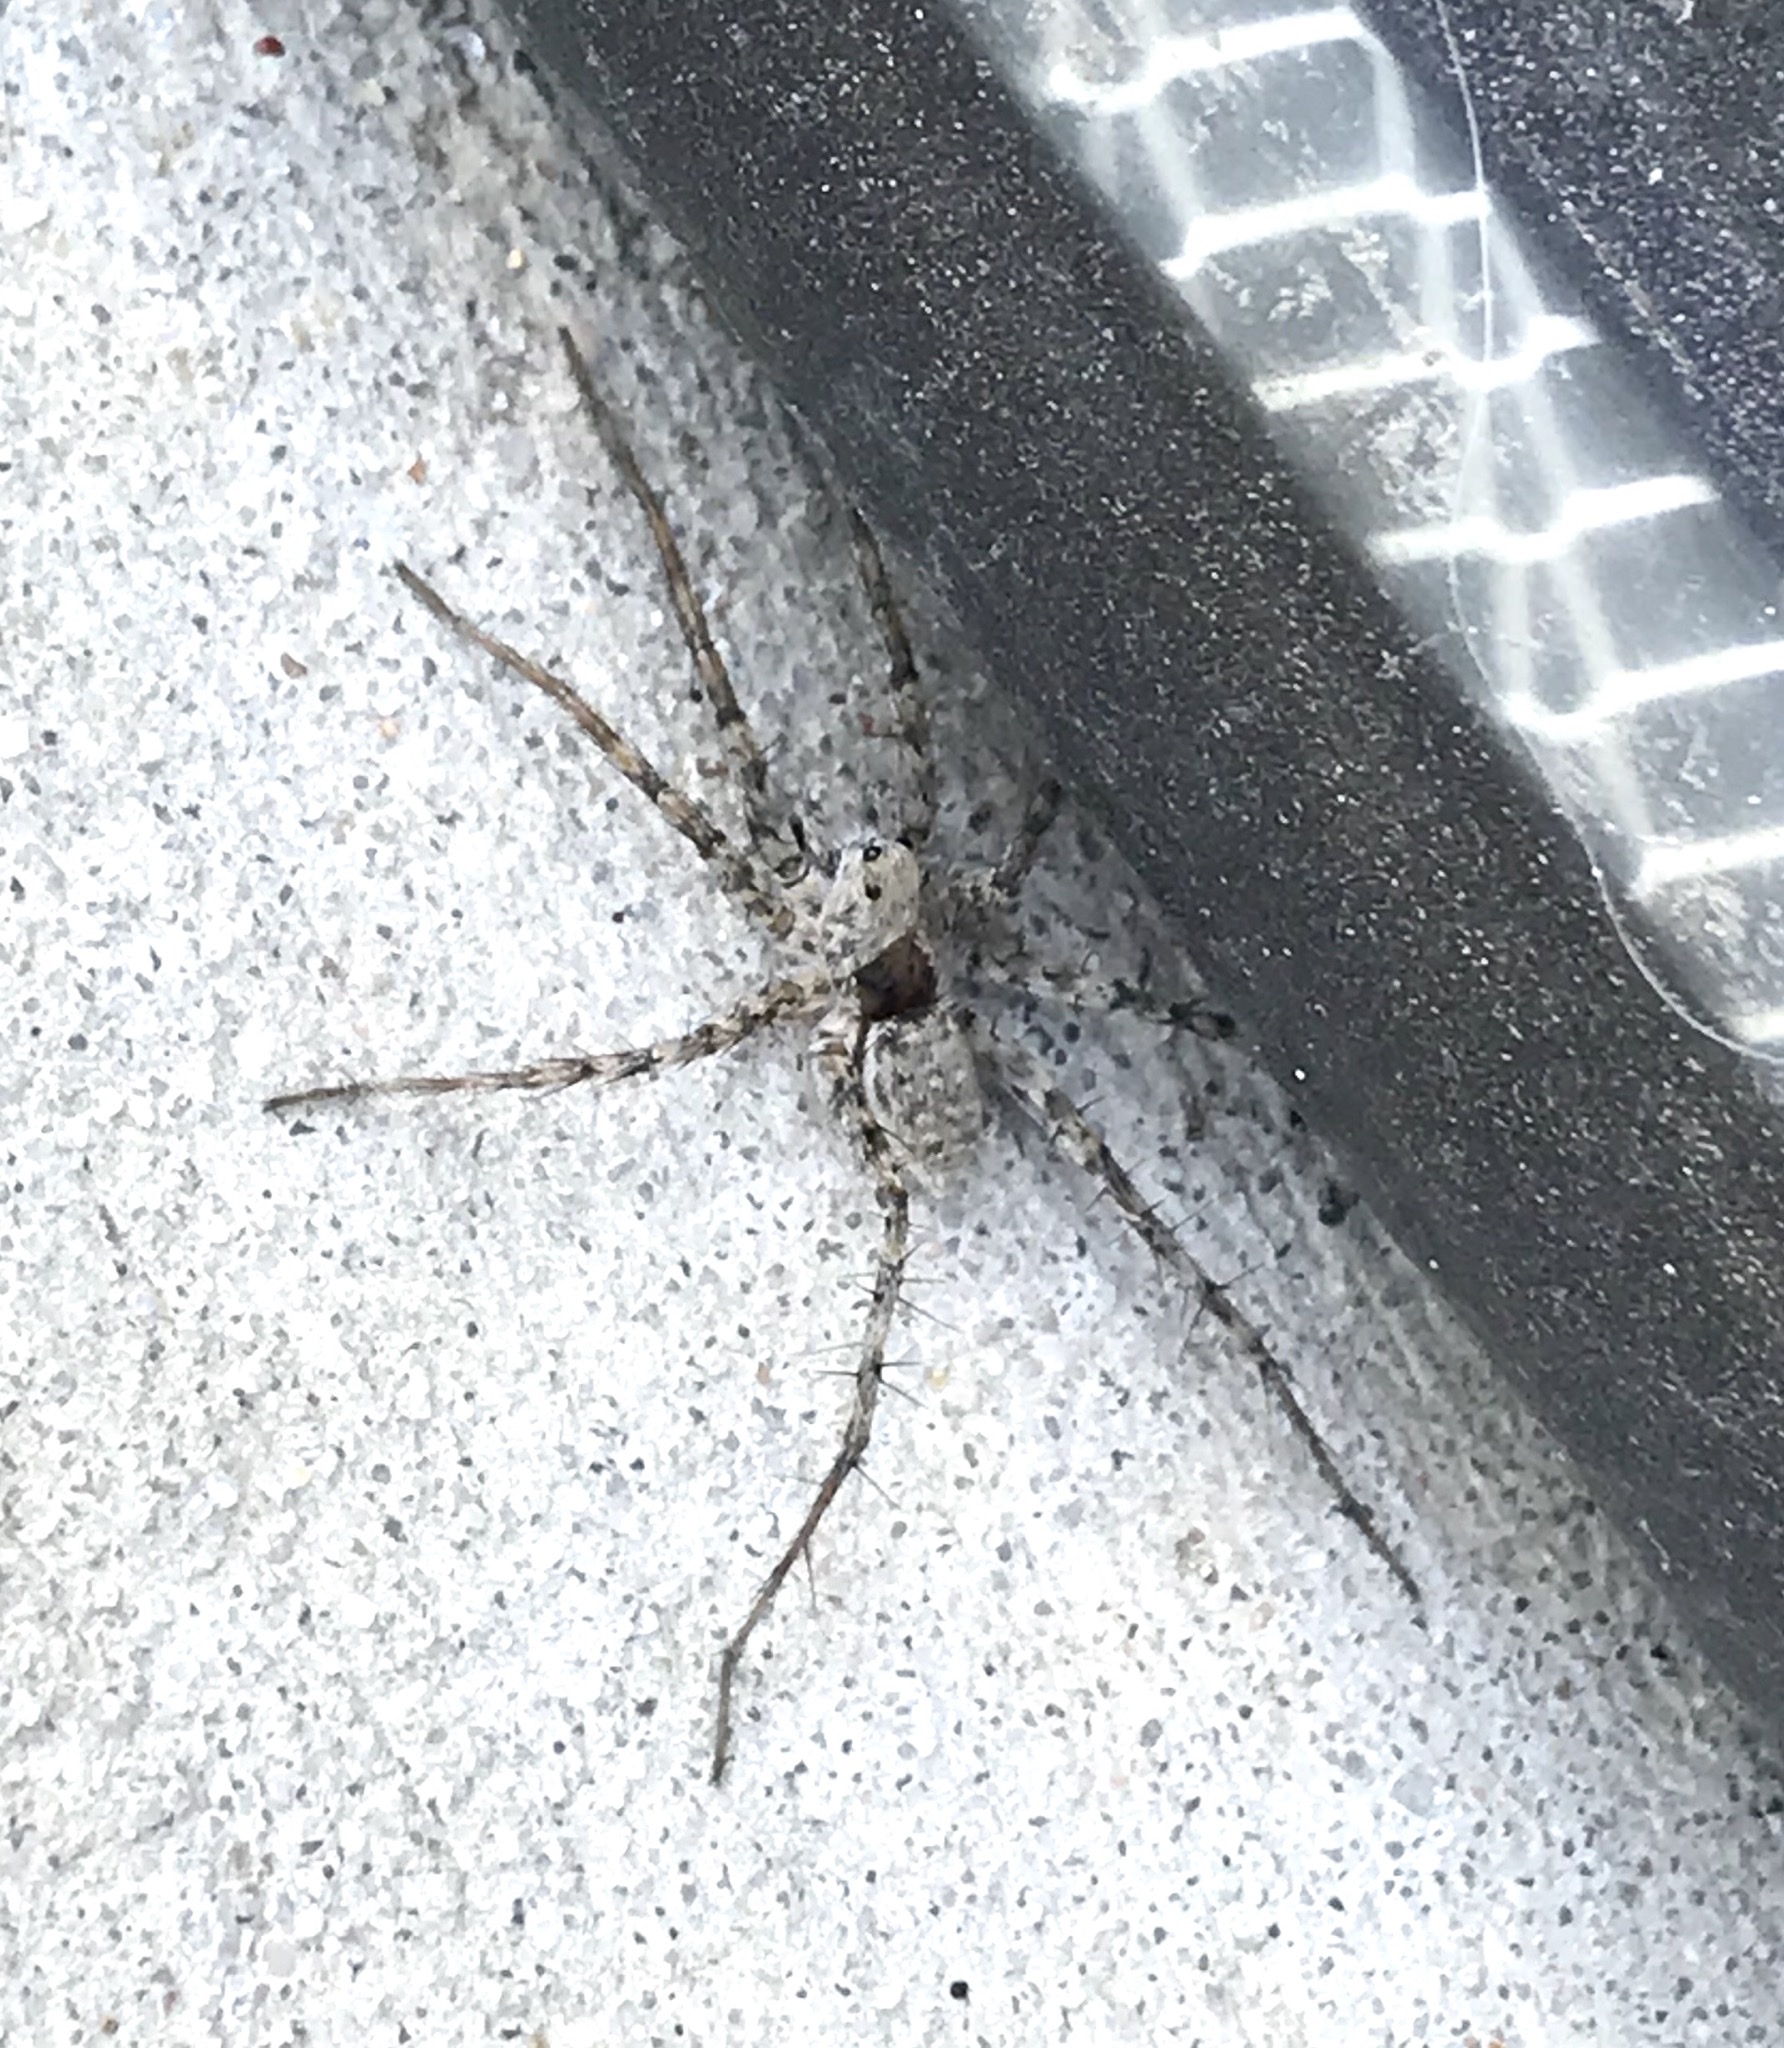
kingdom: Animalia
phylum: Arthropoda
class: Arachnida
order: Araneae
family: Lycosidae
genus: Pardosa
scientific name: Pardosa mercurialis
